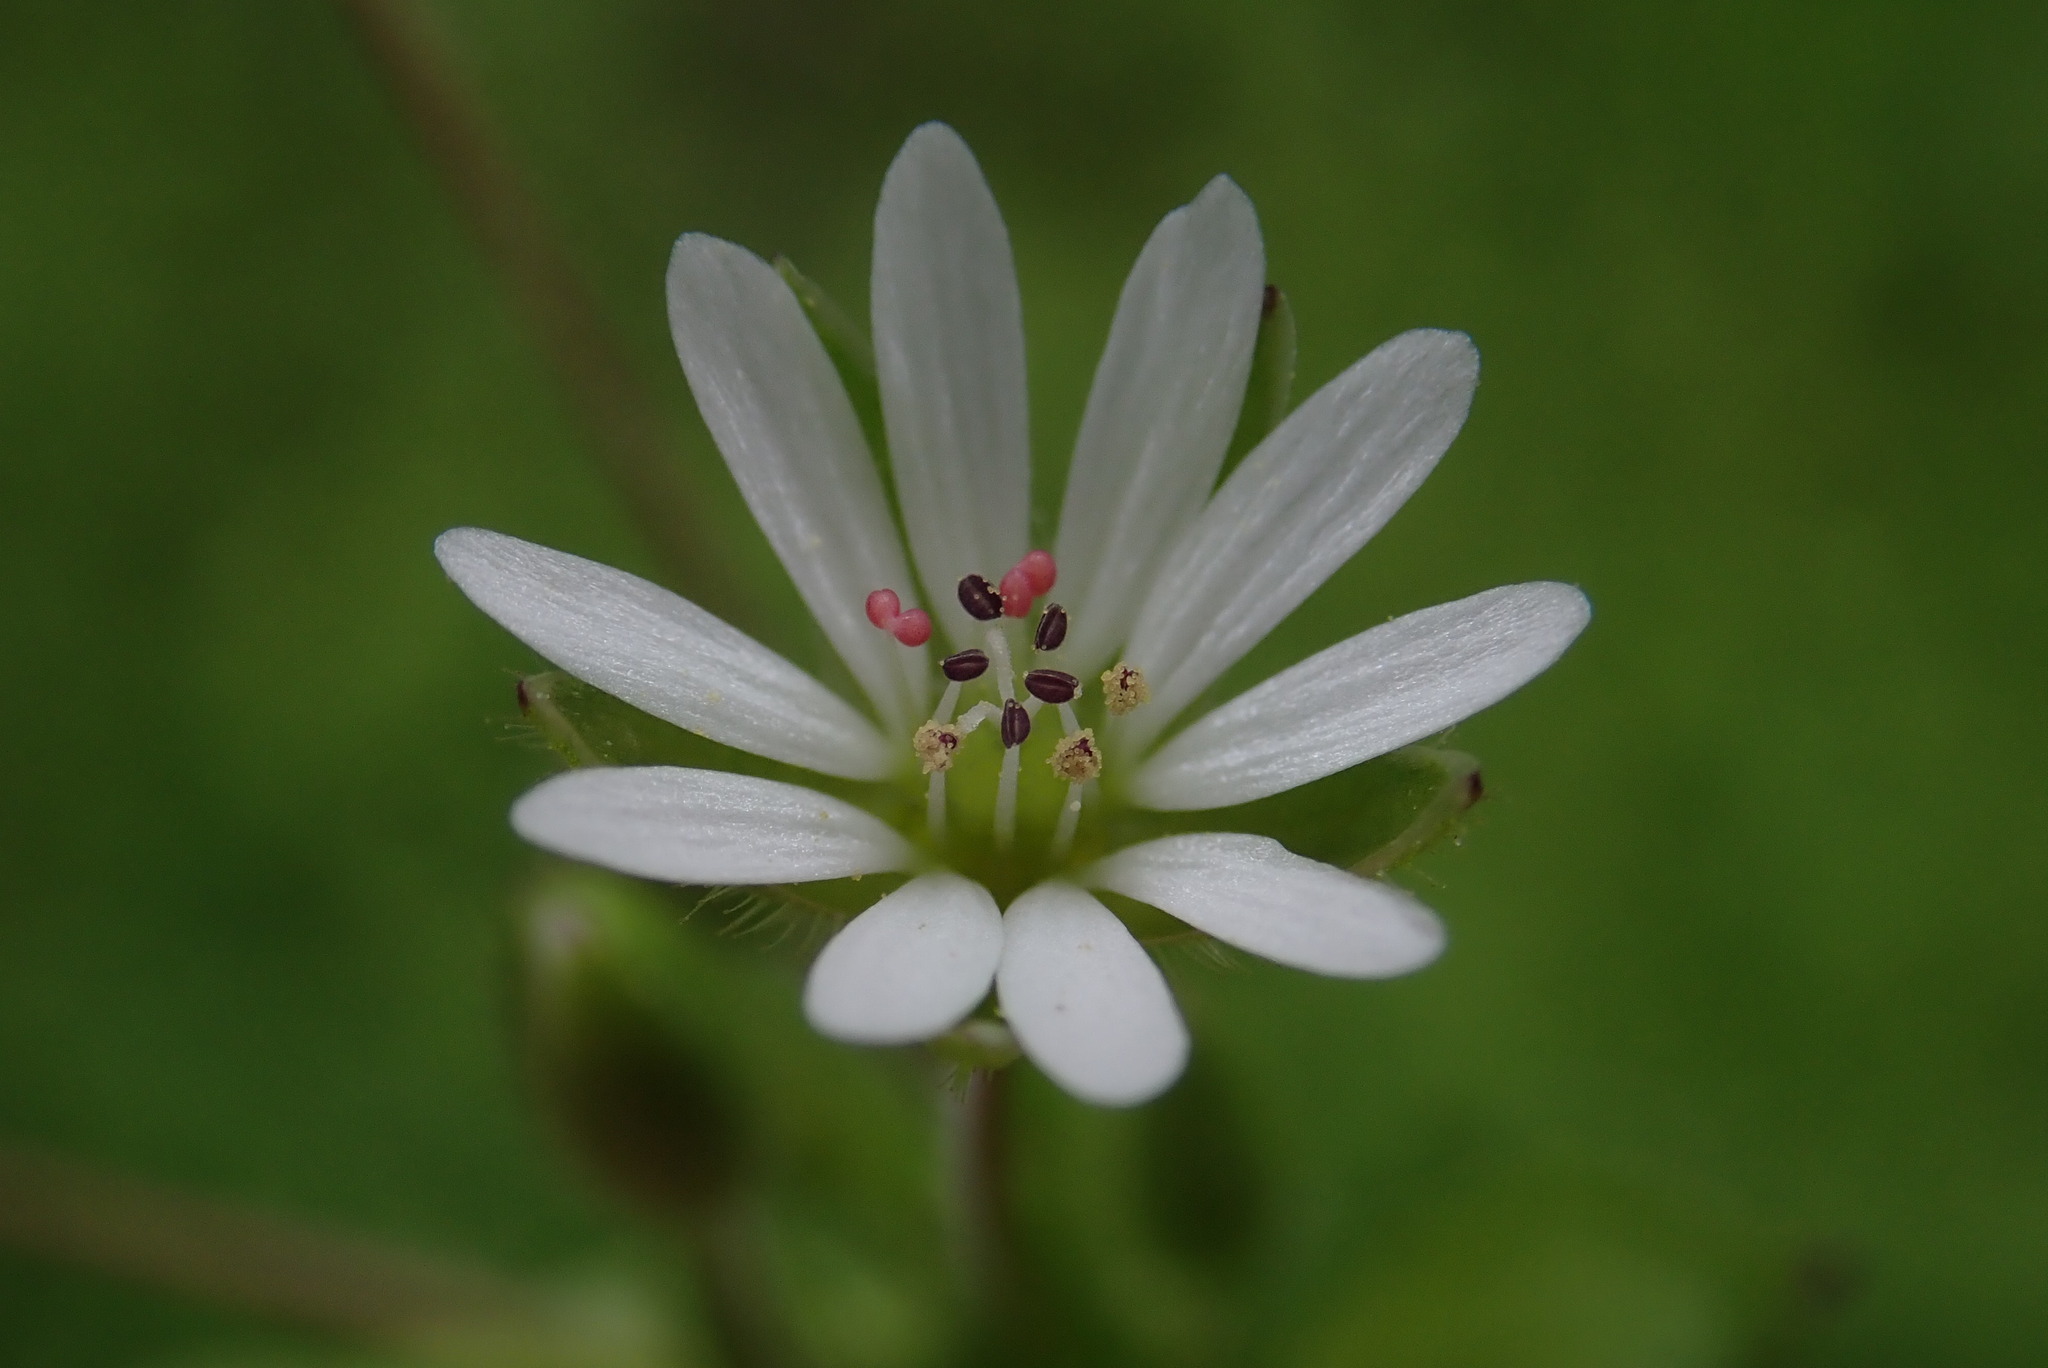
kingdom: Plantae
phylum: Tracheophyta
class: Magnoliopsida
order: Caryophyllales
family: Caryophyllaceae
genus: Stellaria
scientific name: Stellaria neglecta
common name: Greater chickweed
